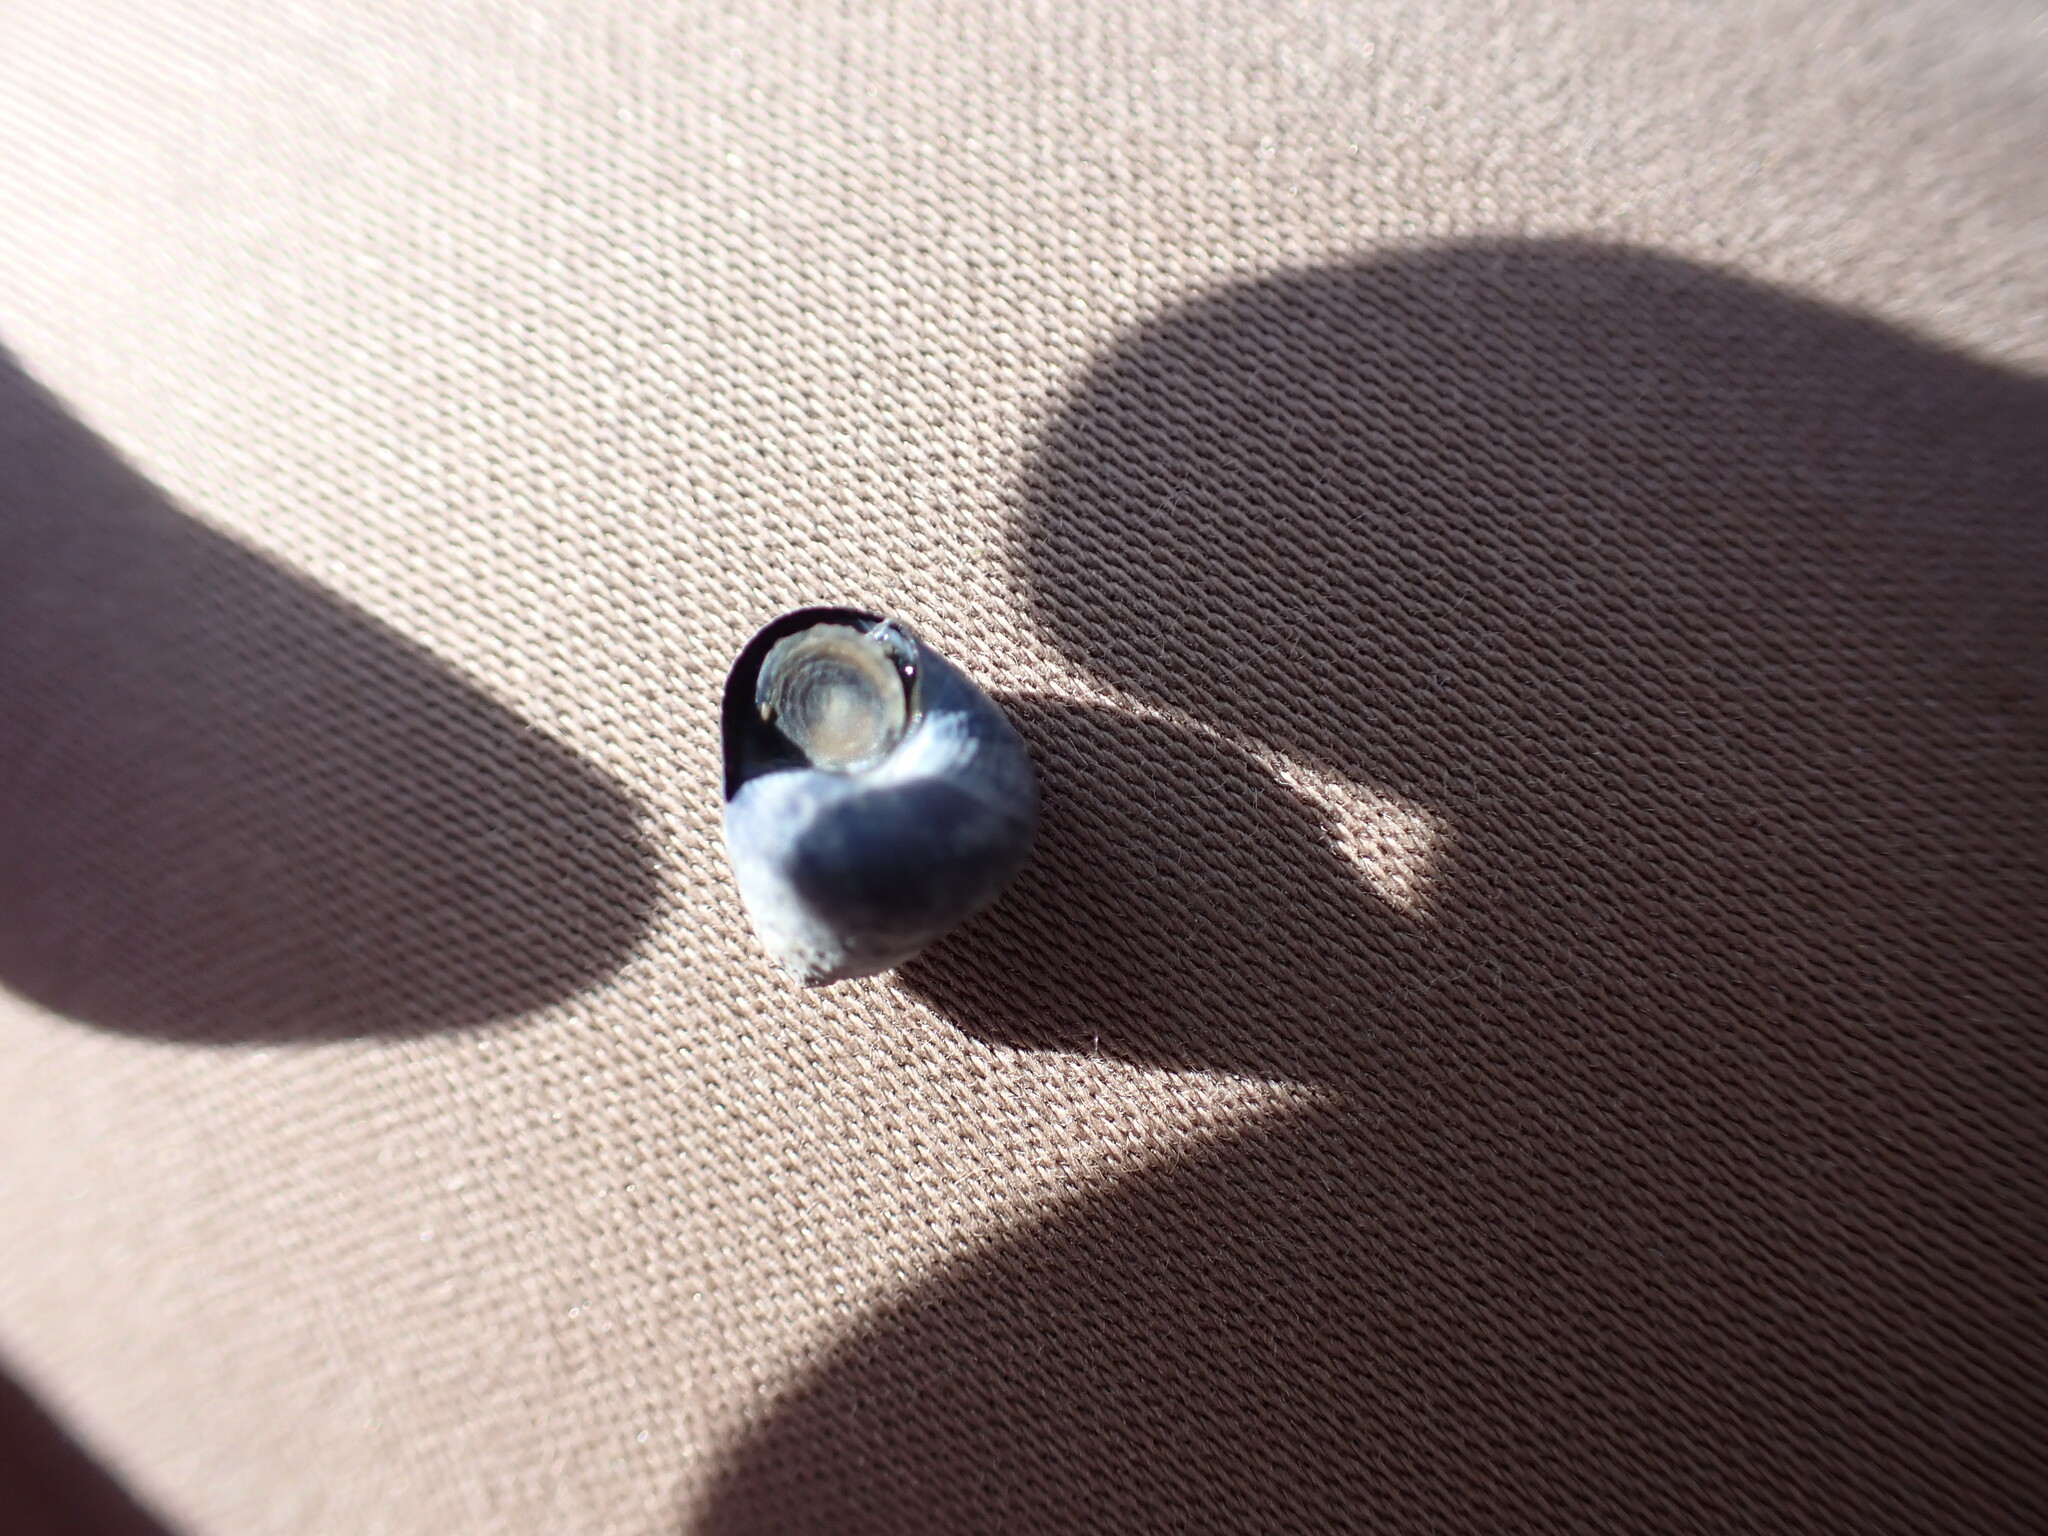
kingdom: Animalia
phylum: Mollusca
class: Gastropoda
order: Trochida
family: Trochidae
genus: Micrelenchus
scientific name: Micrelenchus huttonii
